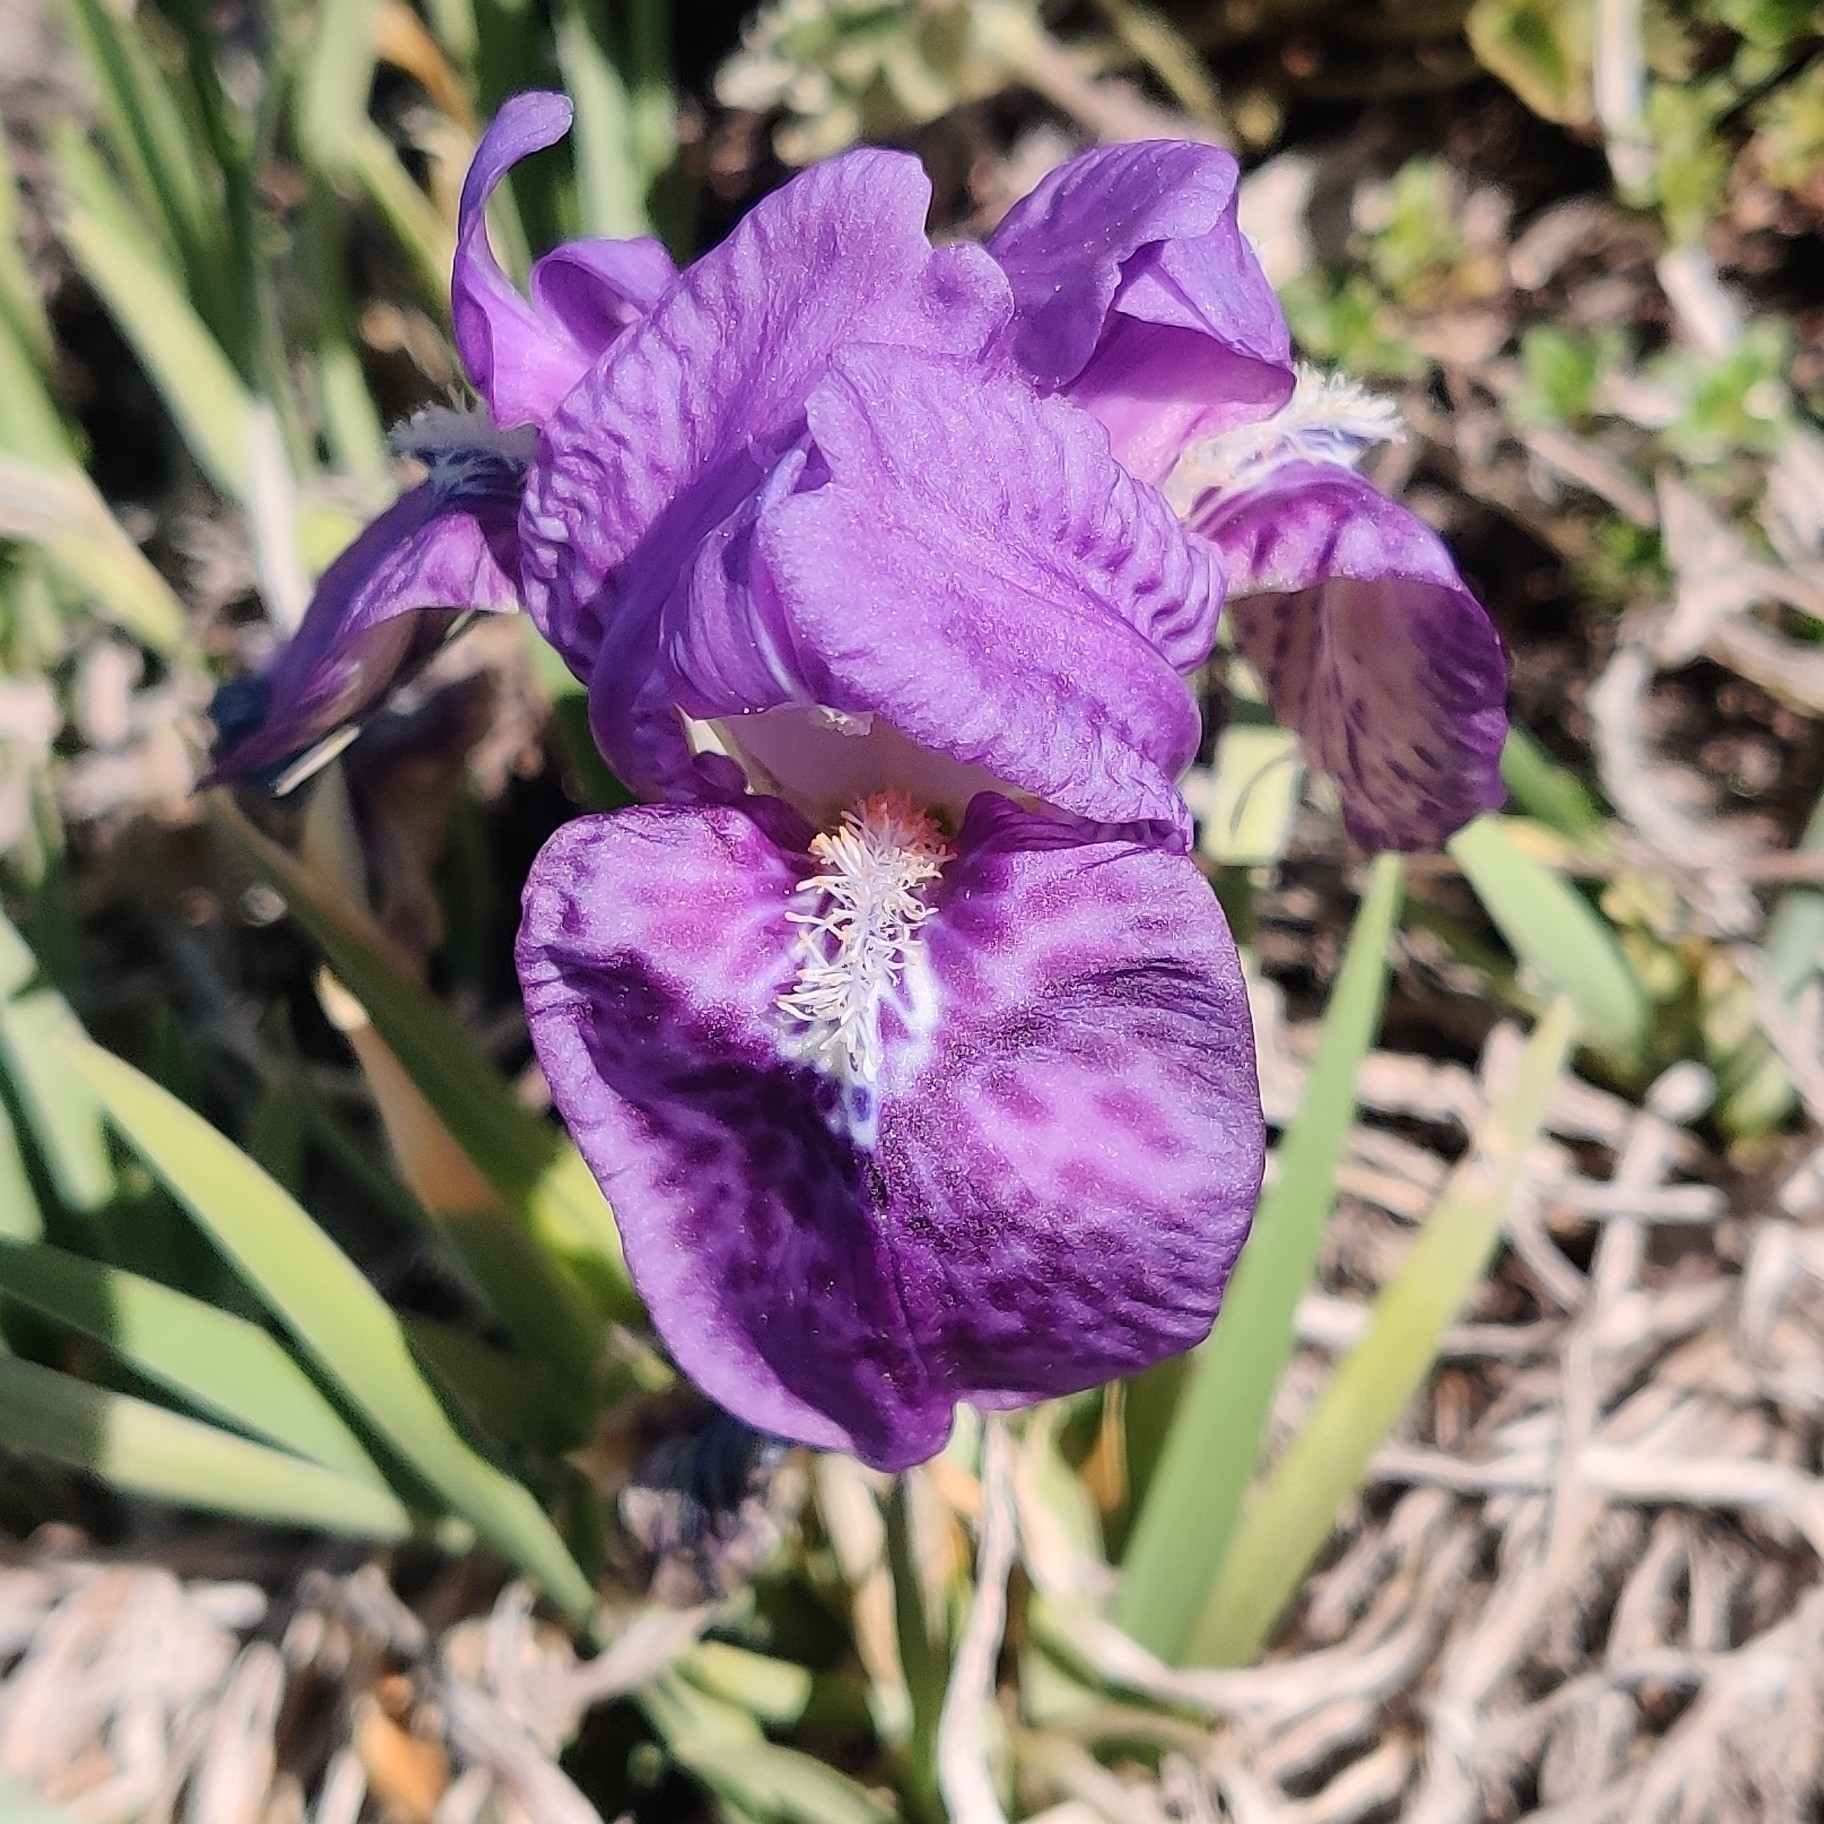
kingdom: Plantae
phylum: Tracheophyta
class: Liliopsida
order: Asparagales
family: Iridaceae
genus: Iris
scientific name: Iris kemaonensis
